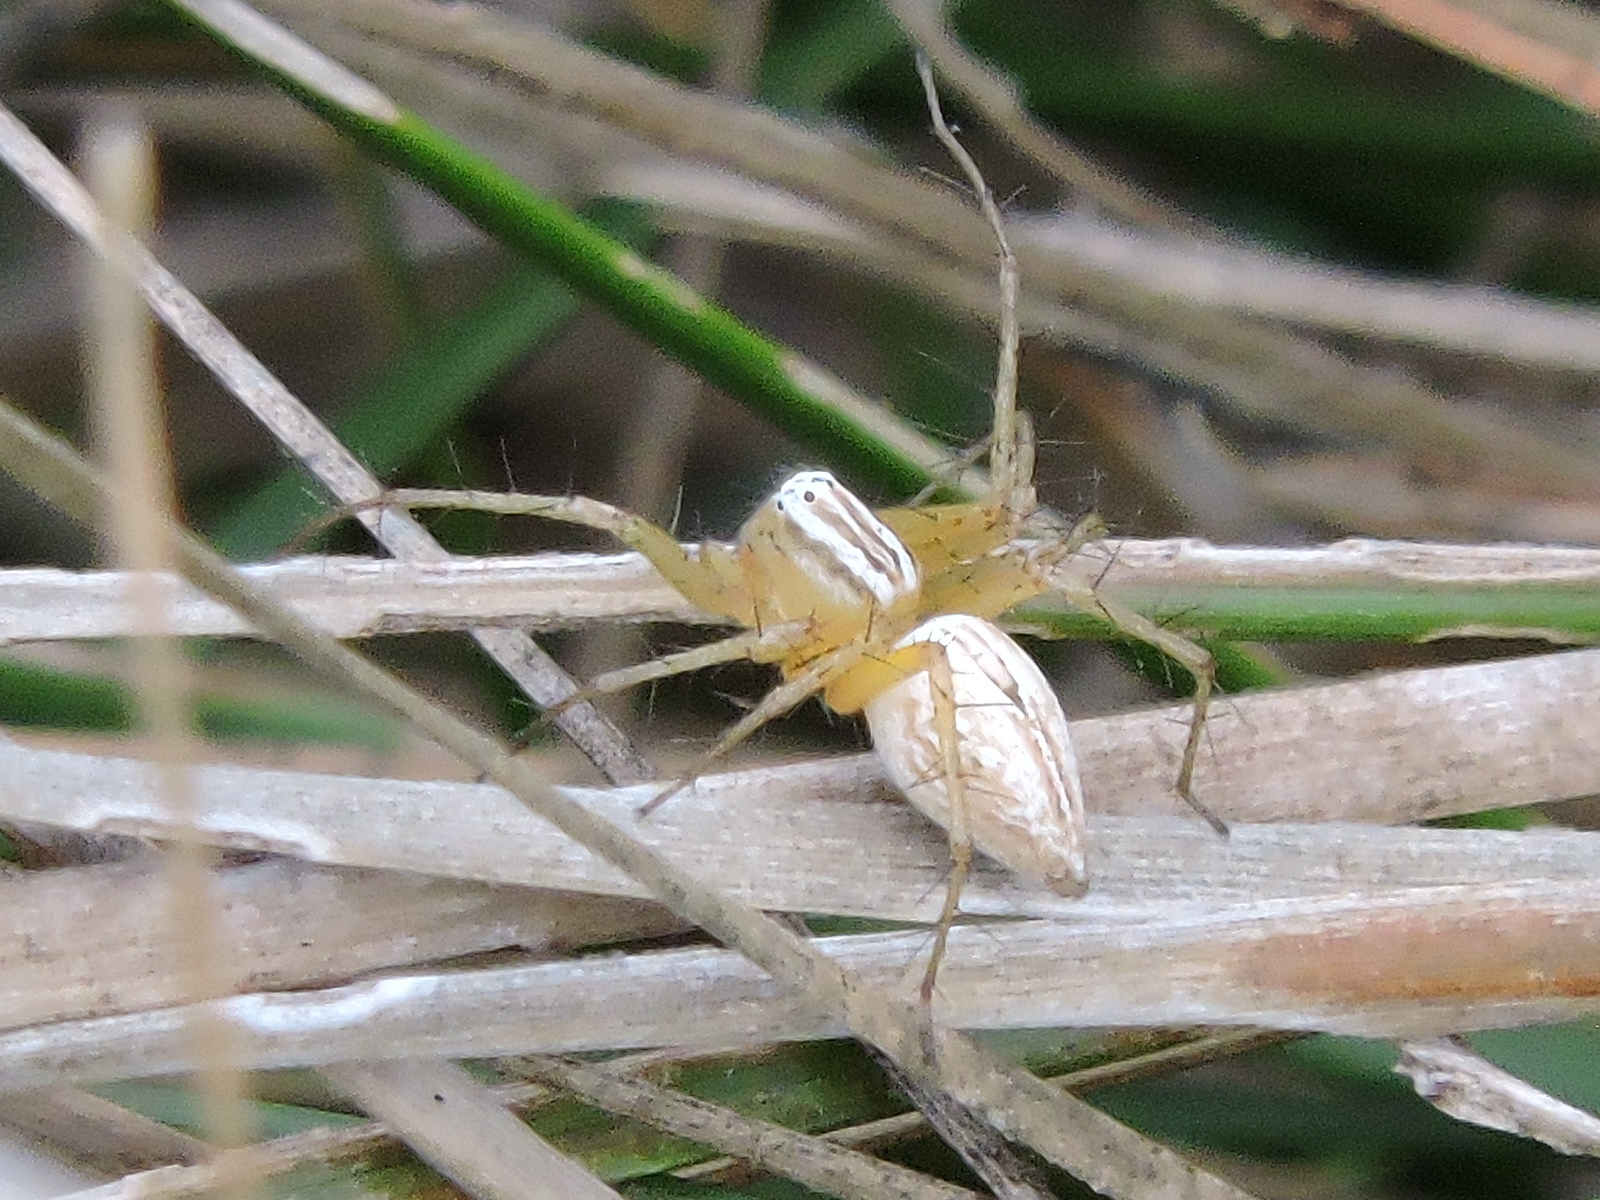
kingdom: Animalia
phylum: Arthropoda
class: Arachnida
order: Araneae
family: Oxyopidae
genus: Oxyopes
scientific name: Oxyopes salticus
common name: Lynx spiders
